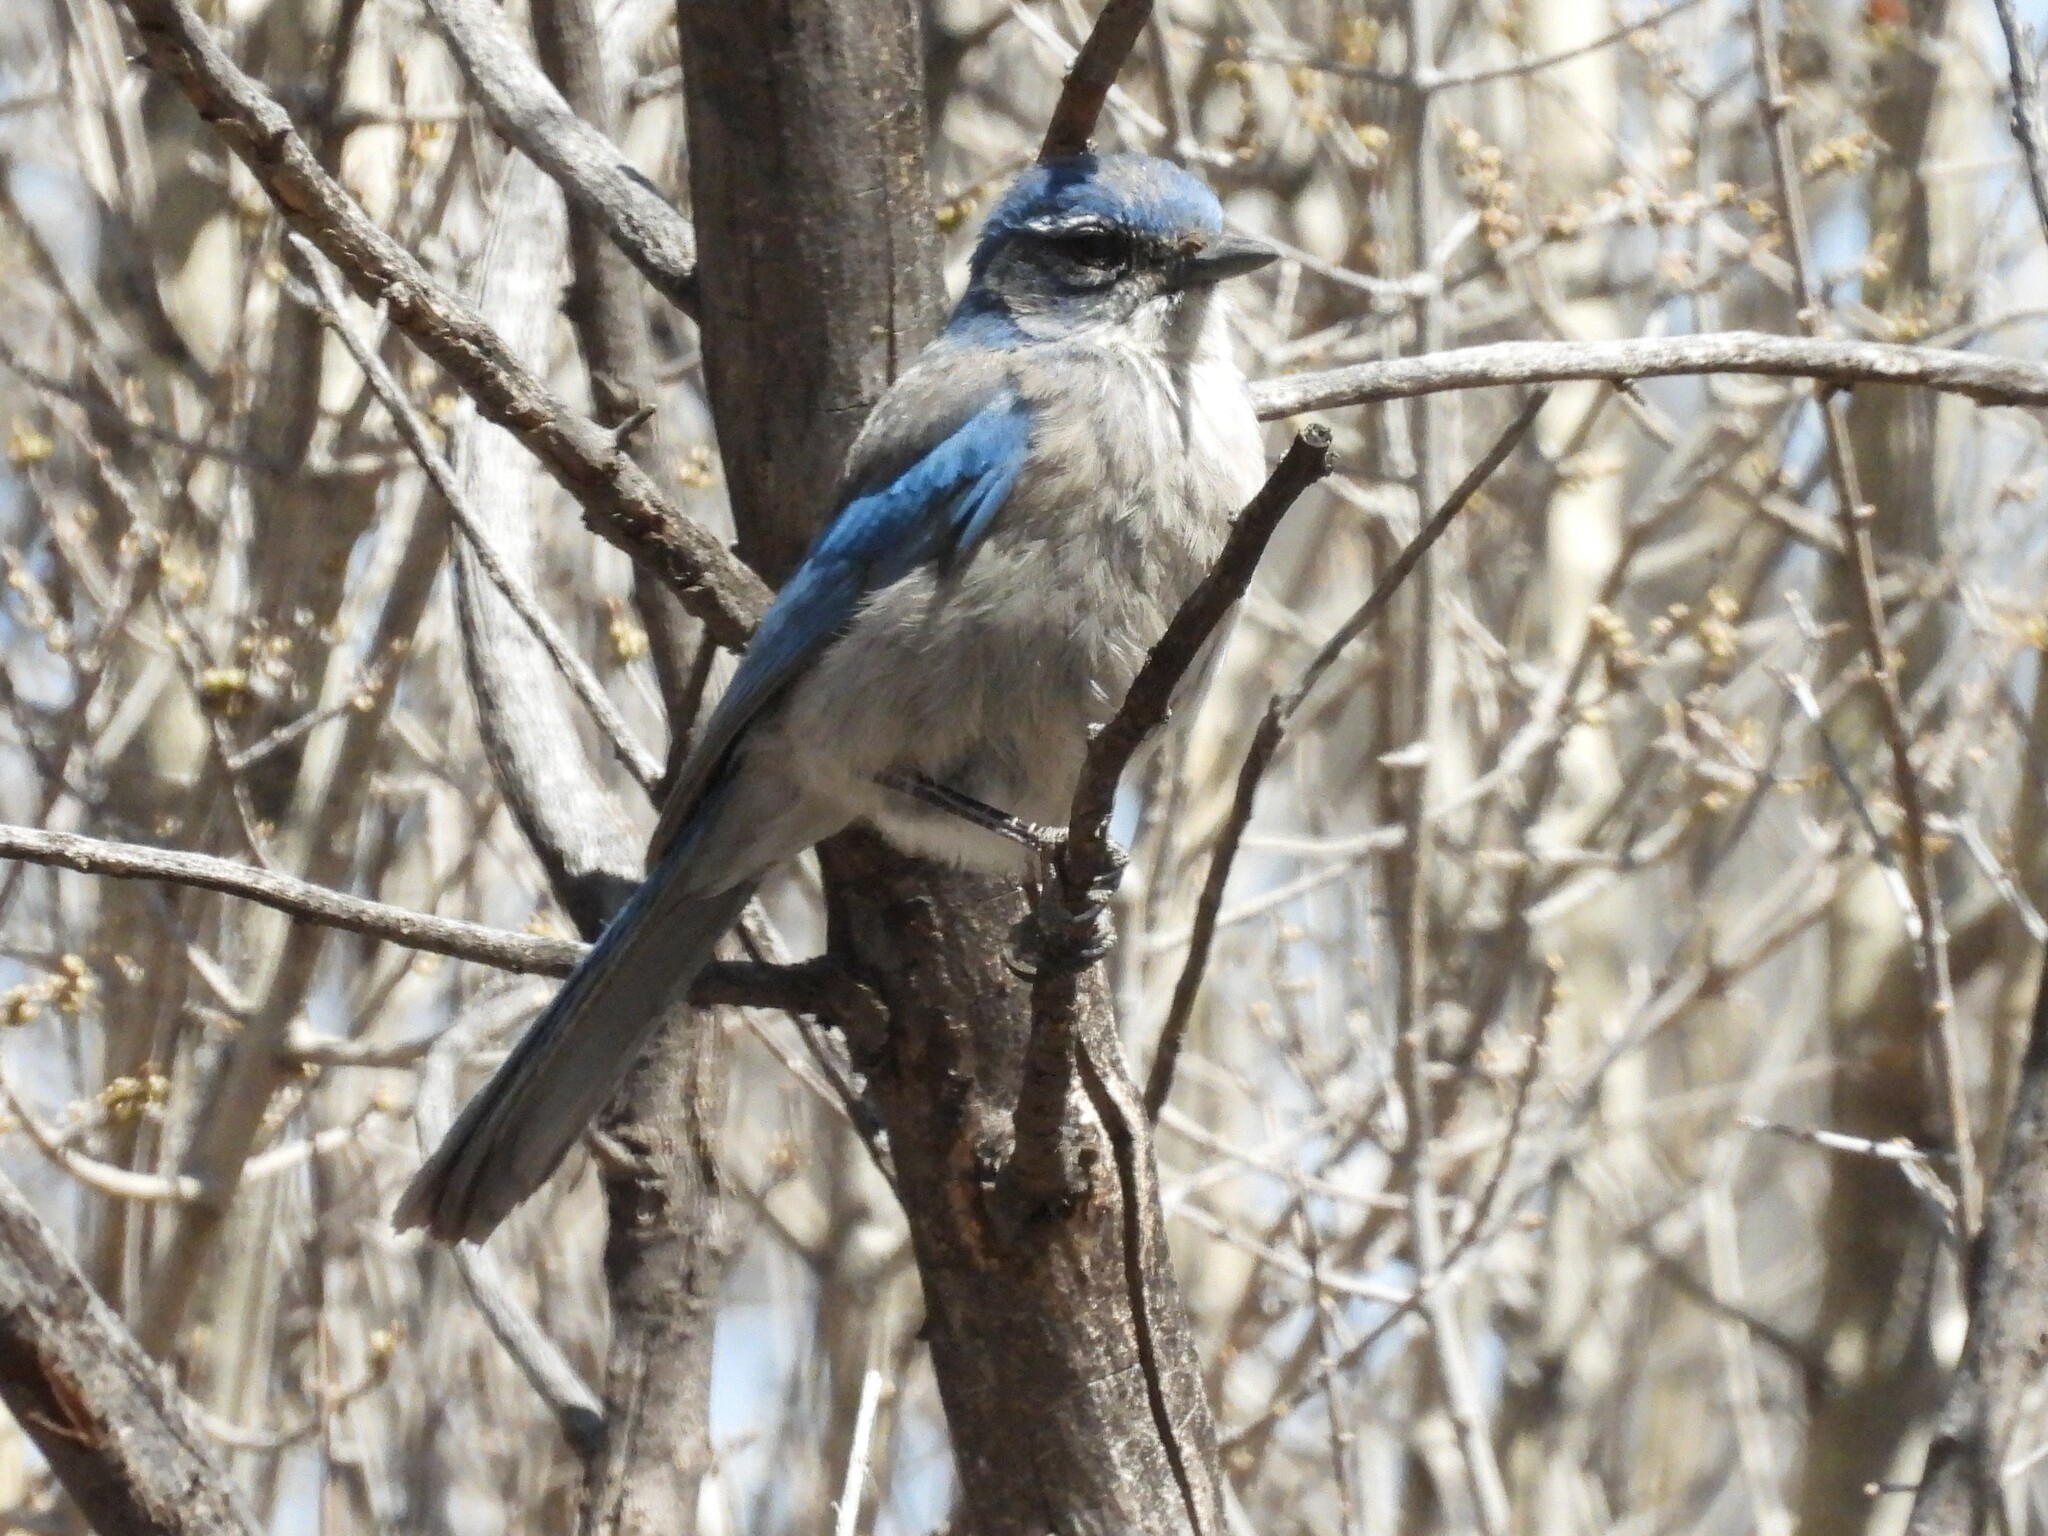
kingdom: Animalia
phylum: Chordata
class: Aves
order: Passeriformes
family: Corvidae
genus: Aphelocoma
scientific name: Aphelocoma woodhouseii
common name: Woodhouse's scrub-jay
